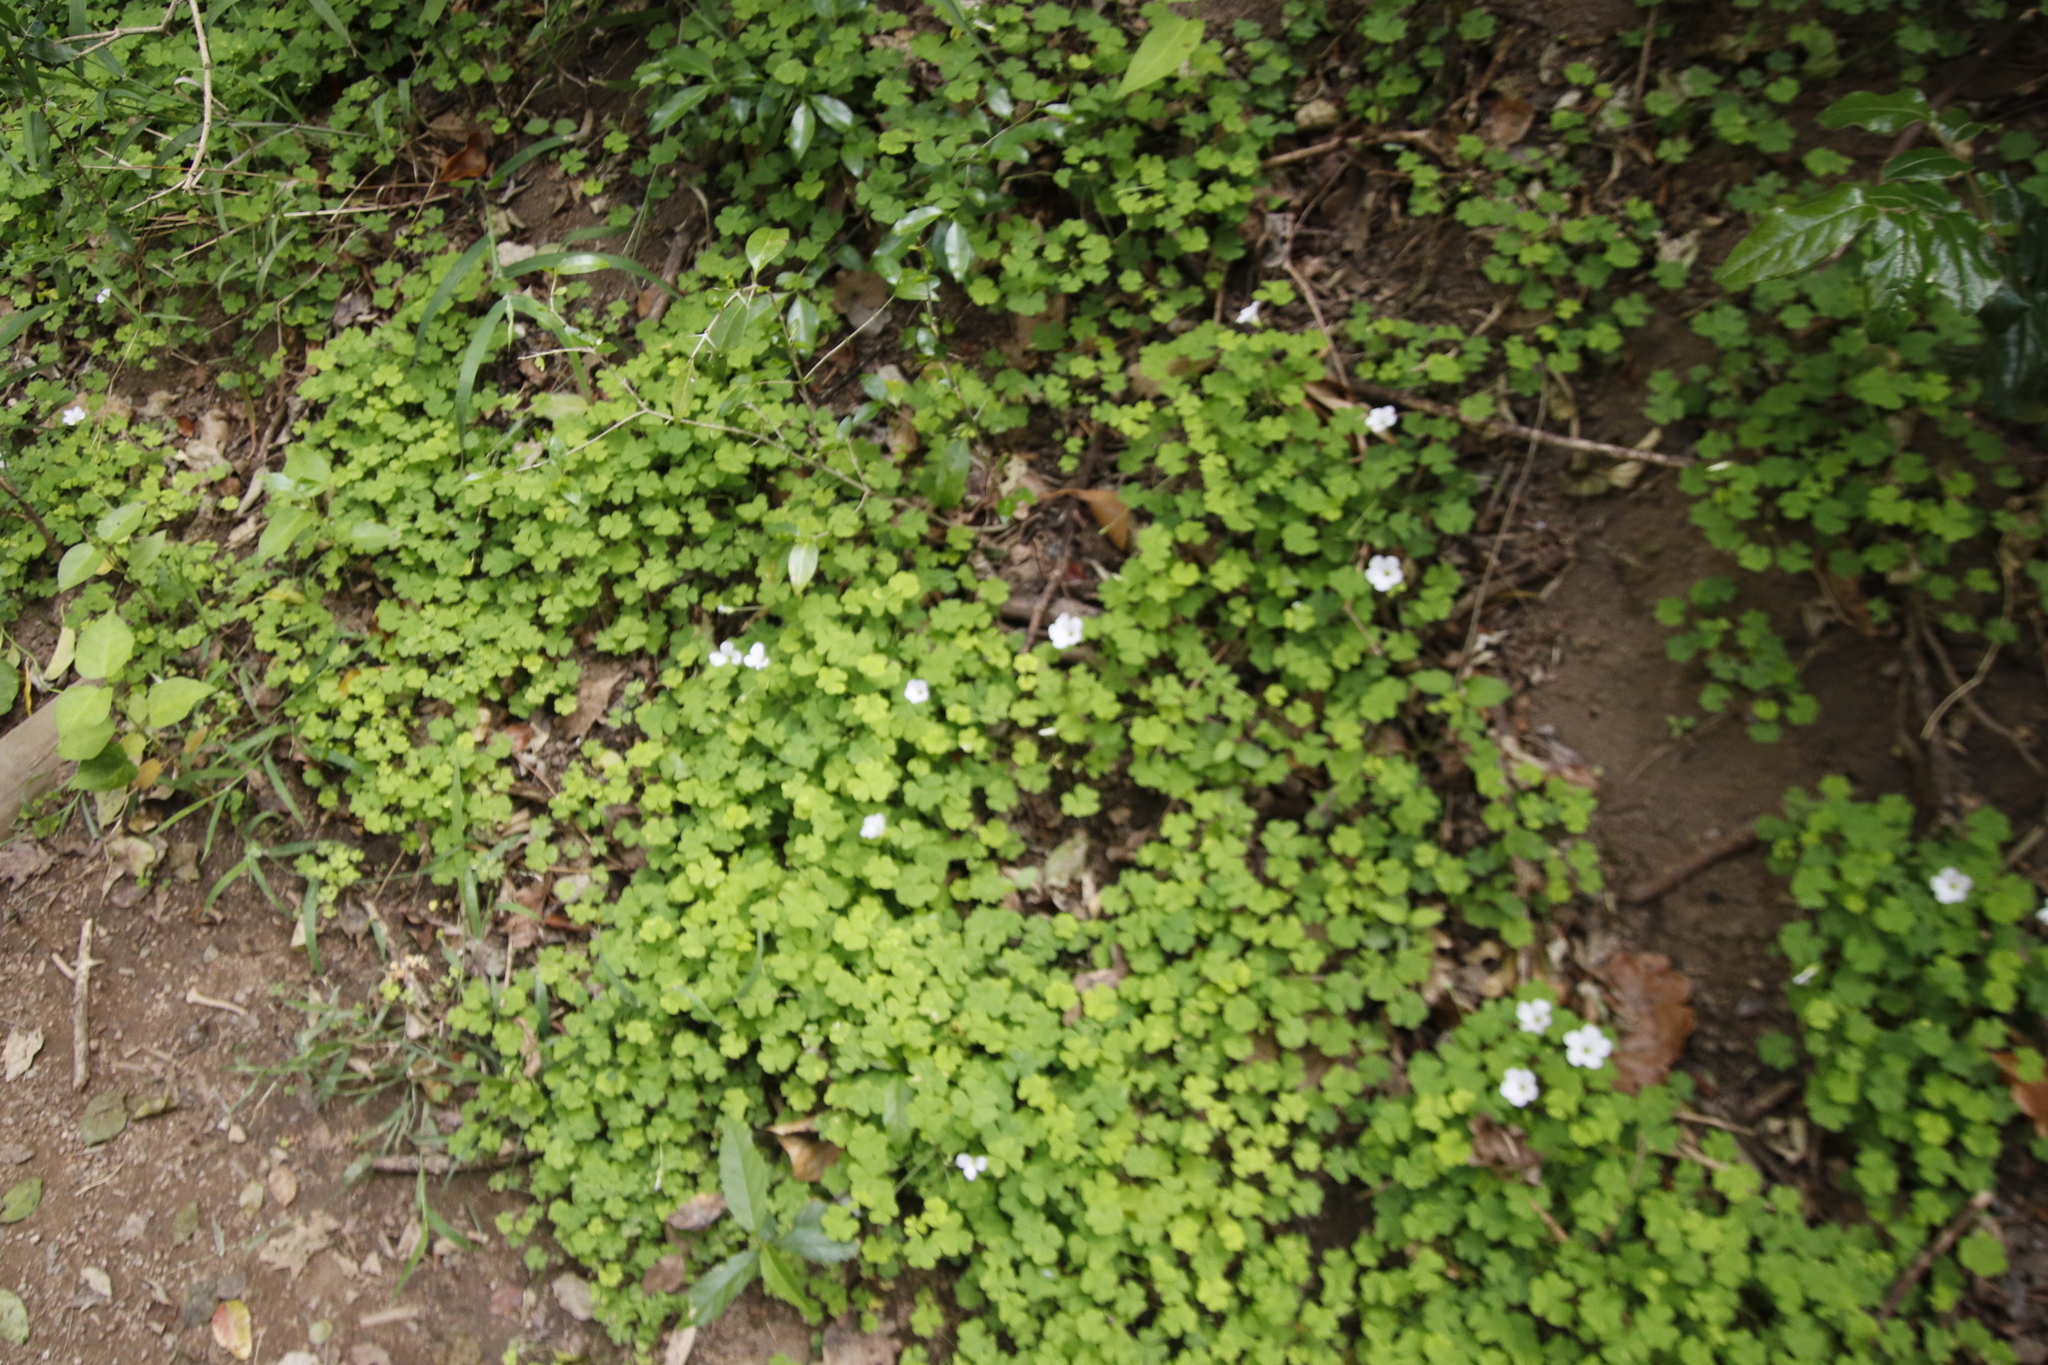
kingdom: Plantae
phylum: Tracheophyta
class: Magnoliopsida
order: Oxalidales
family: Oxalidaceae
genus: Oxalis
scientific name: Oxalis incarnata
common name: Pale pink-sorrel
